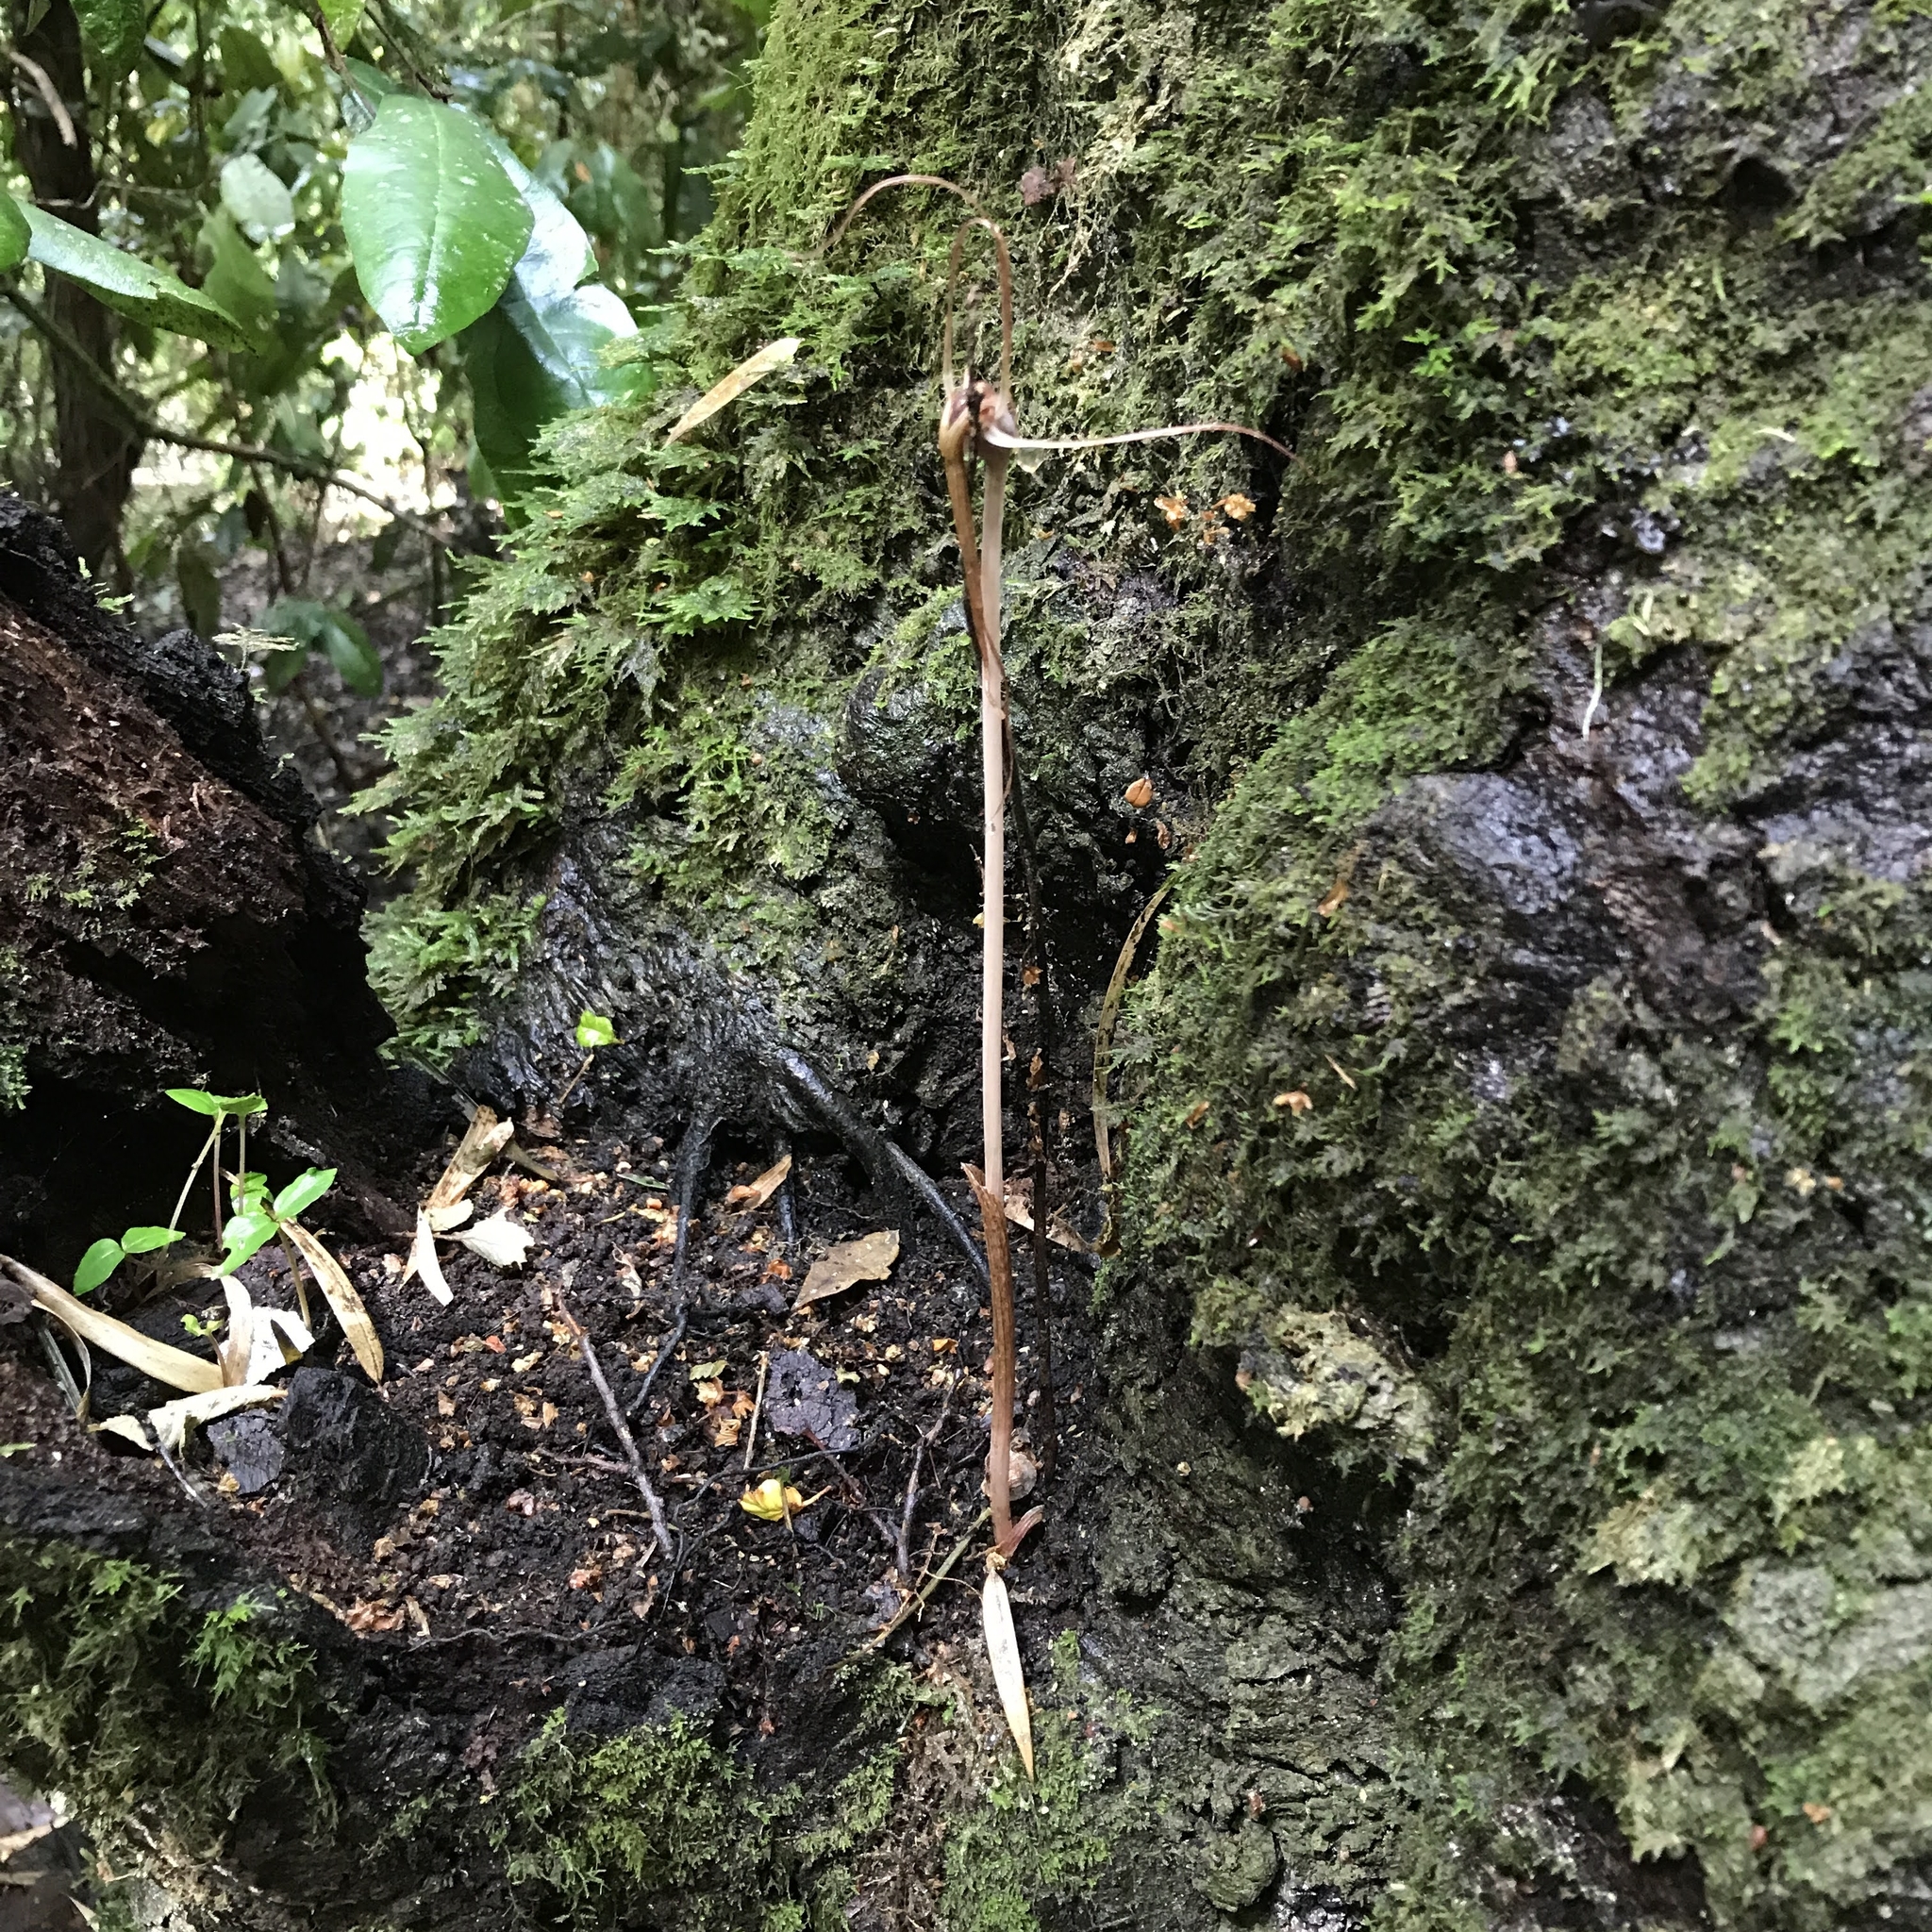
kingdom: Plantae
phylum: Tracheophyta
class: Liliopsida
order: Liliales
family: Corsiaceae
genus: Arachnitis
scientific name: Arachnitis uniflora
